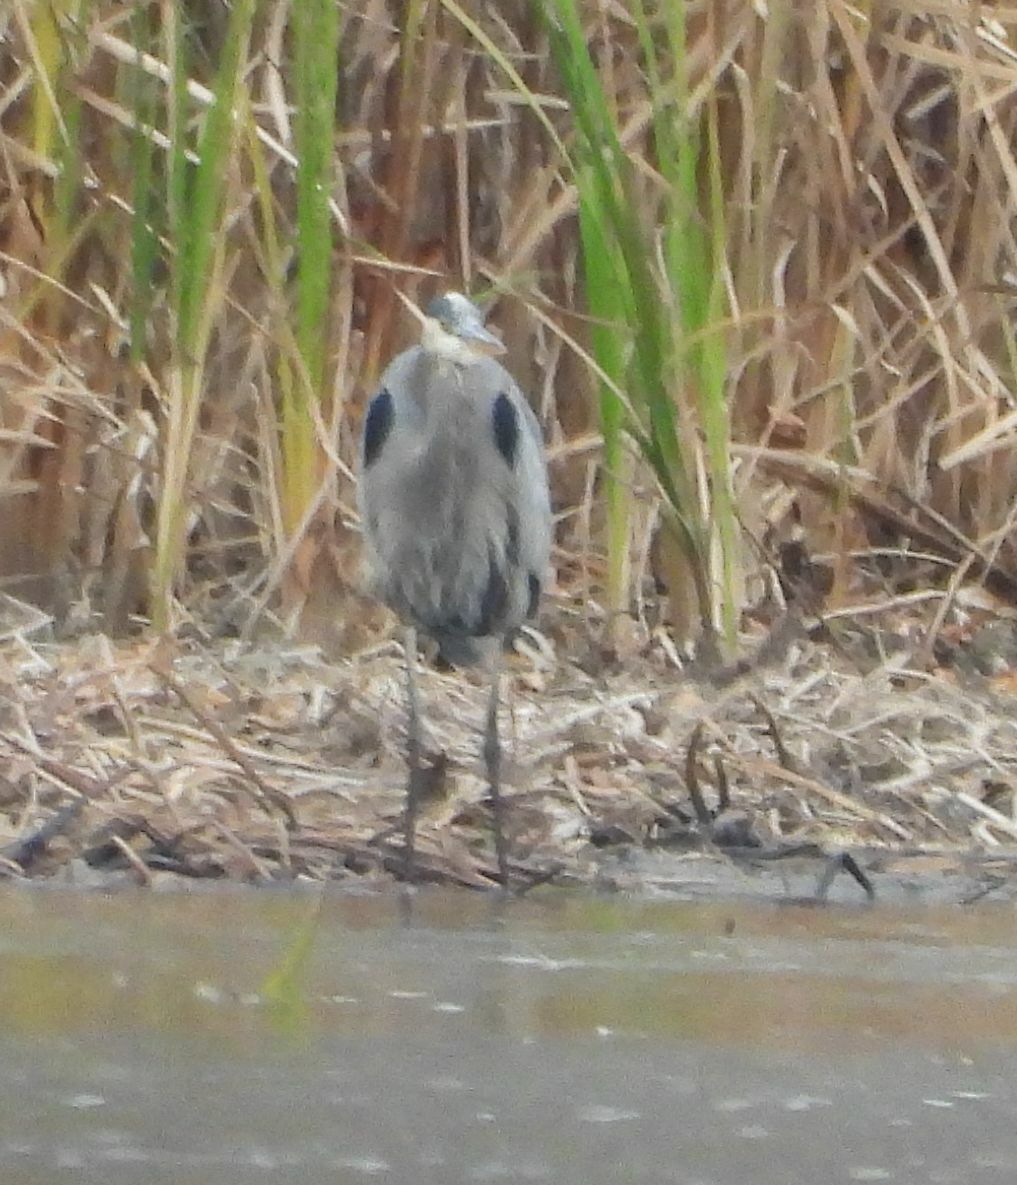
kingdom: Animalia
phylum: Chordata
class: Aves
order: Pelecaniformes
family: Ardeidae
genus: Ardea
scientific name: Ardea herodias
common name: Great blue heron
